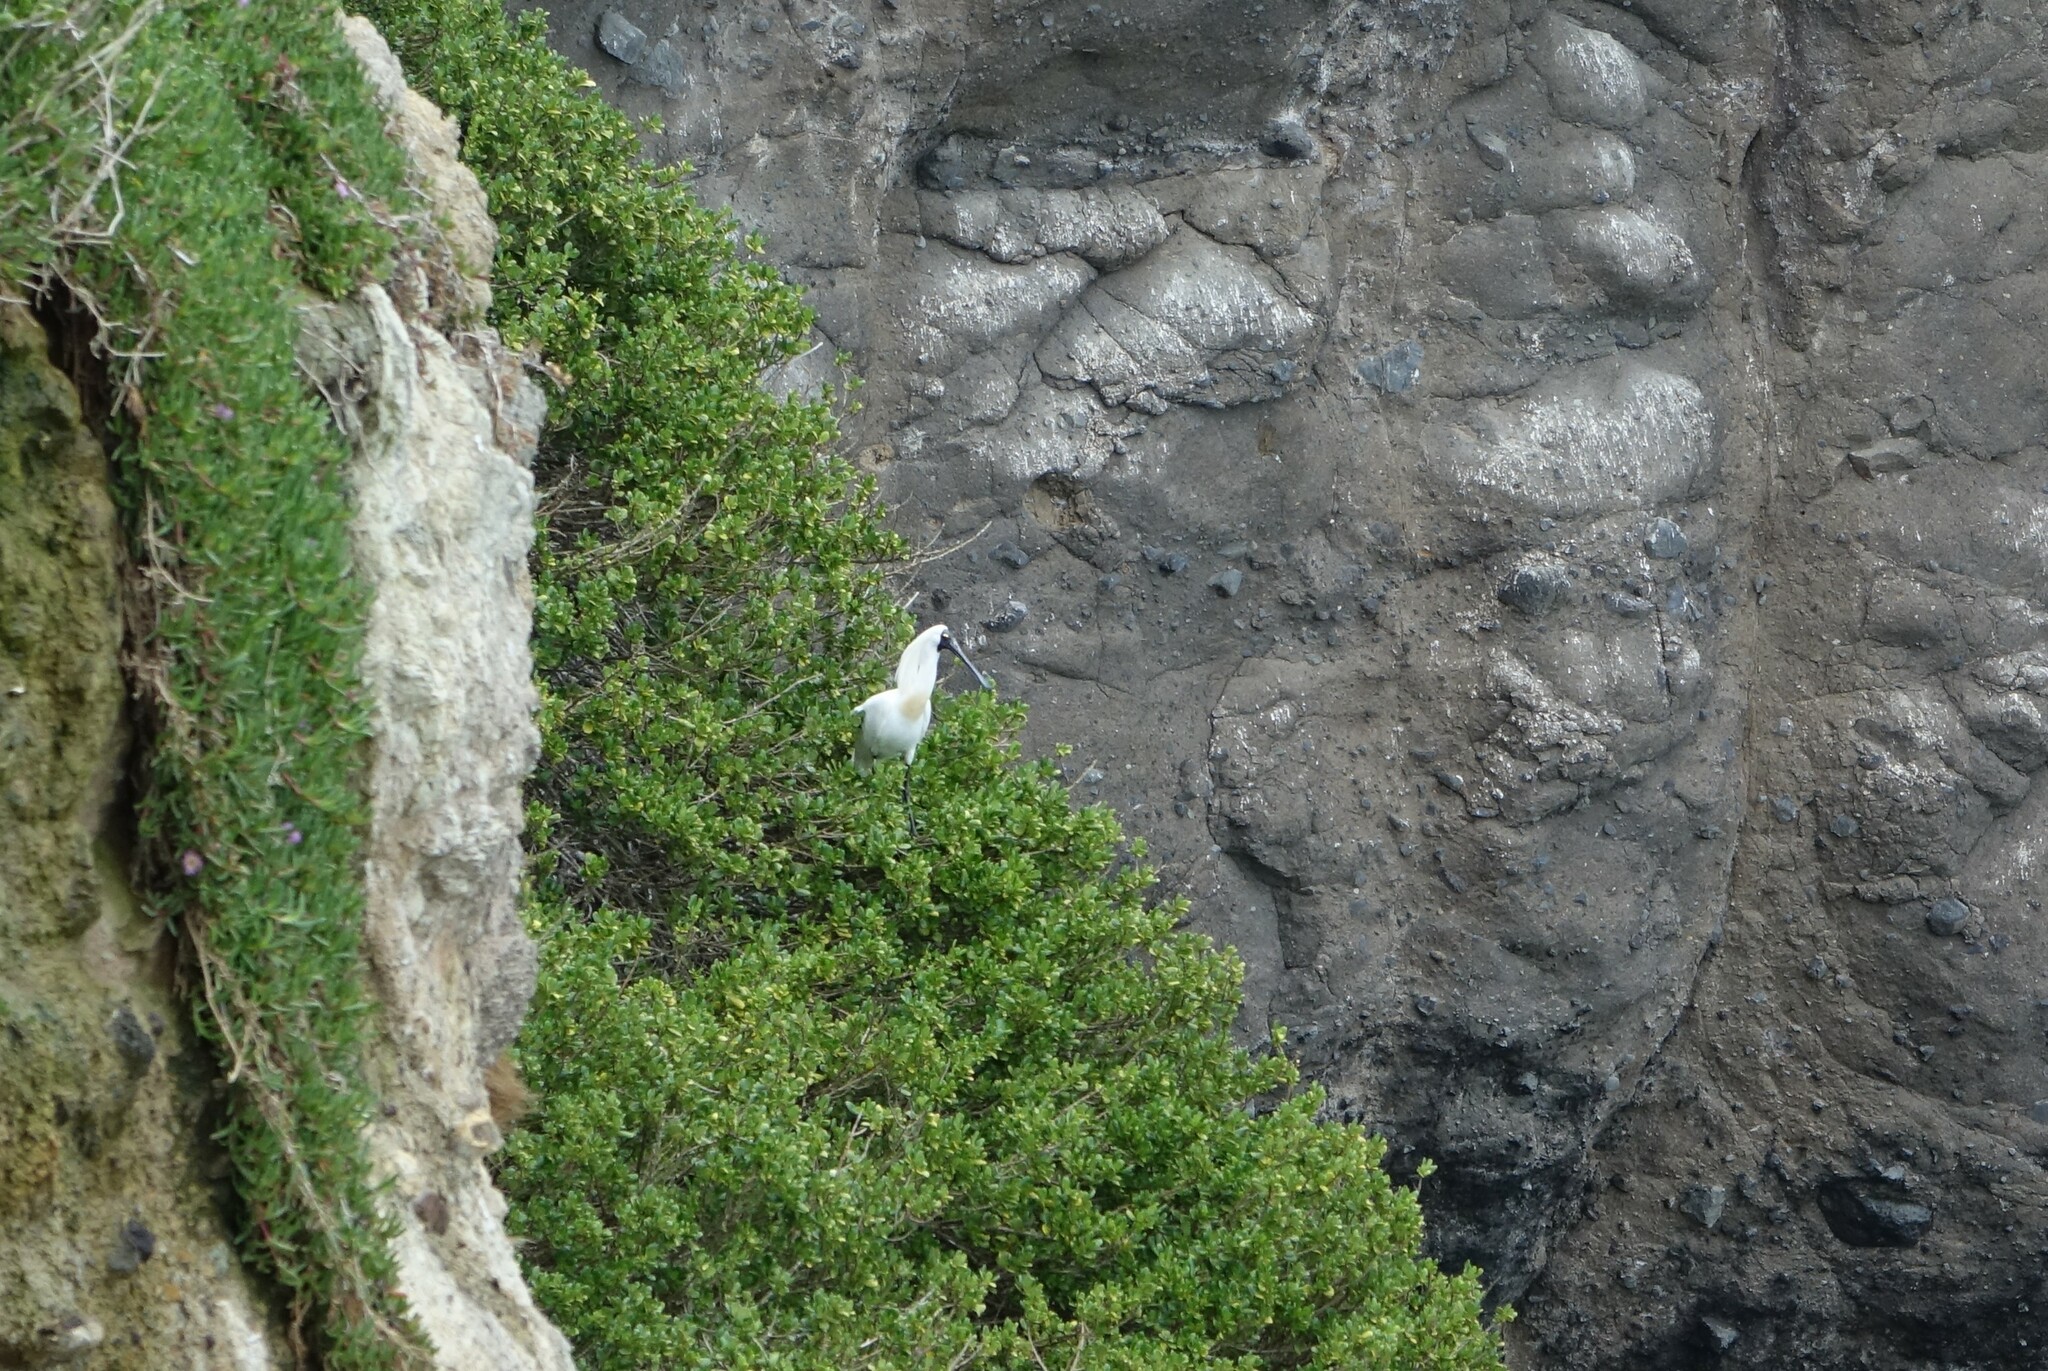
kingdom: Animalia
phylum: Chordata
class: Aves
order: Pelecaniformes
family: Threskiornithidae
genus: Platalea
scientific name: Platalea regia
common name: Royal spoonbill
